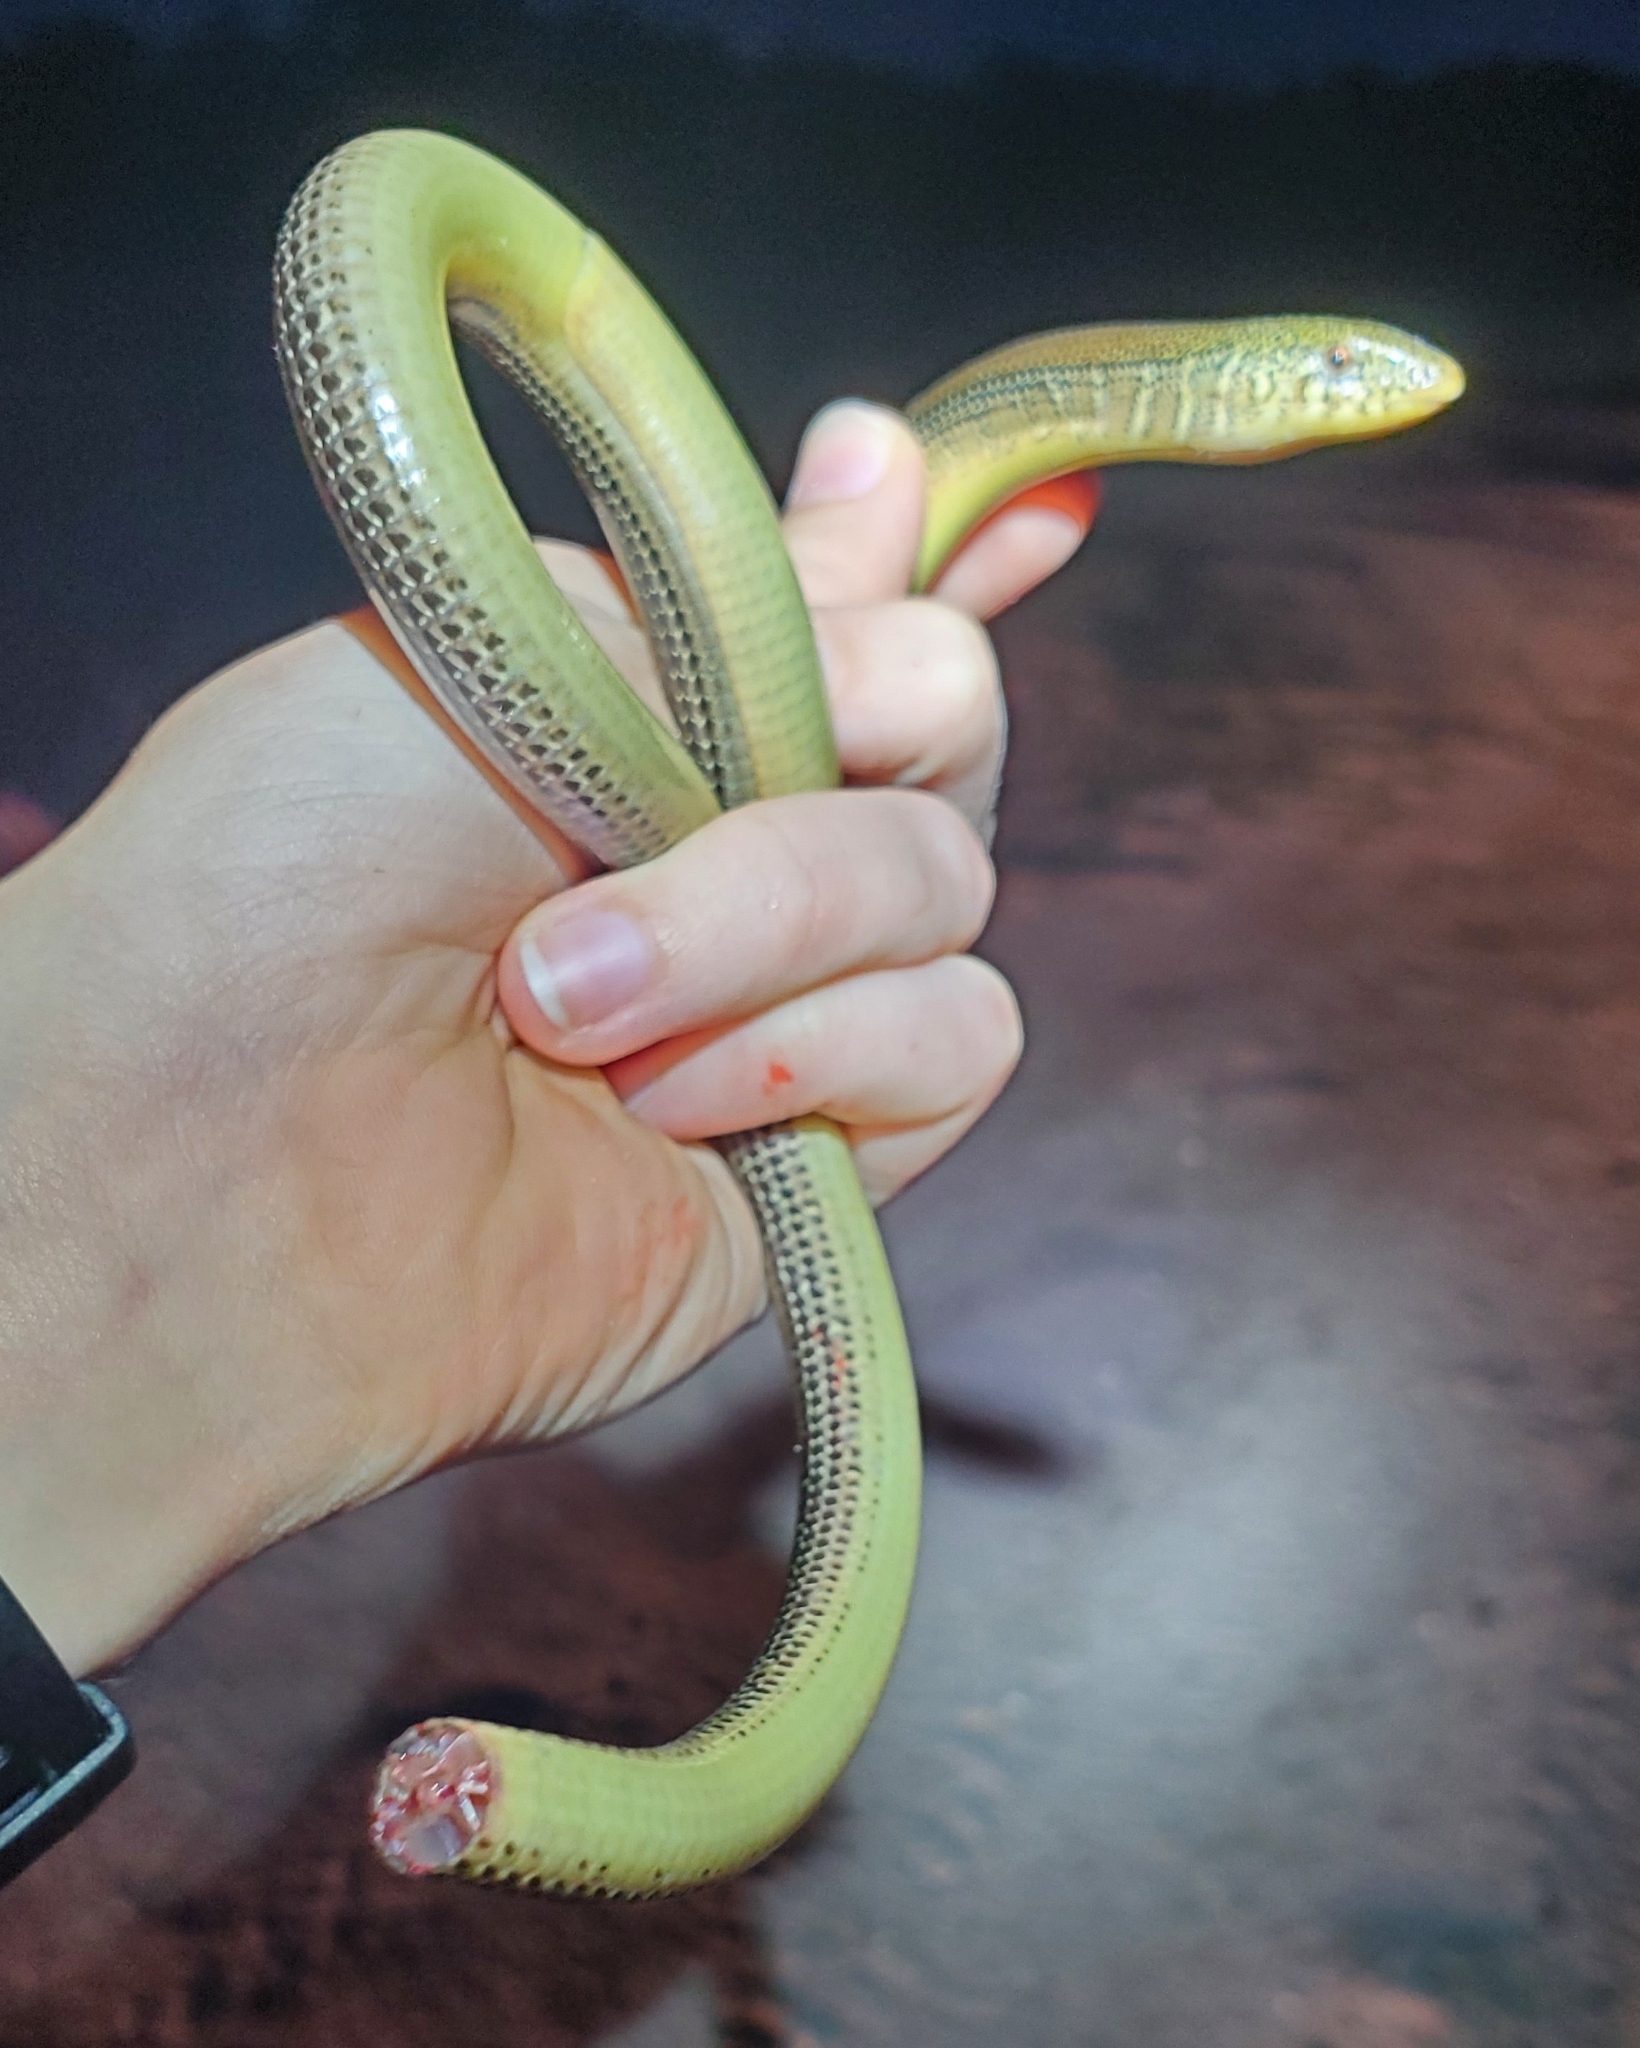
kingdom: Animalia
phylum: Chordata
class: Squamata
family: Anguidae
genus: Ophisaurus
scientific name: Ophisaurus ventralis
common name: Eastern glass lizard
